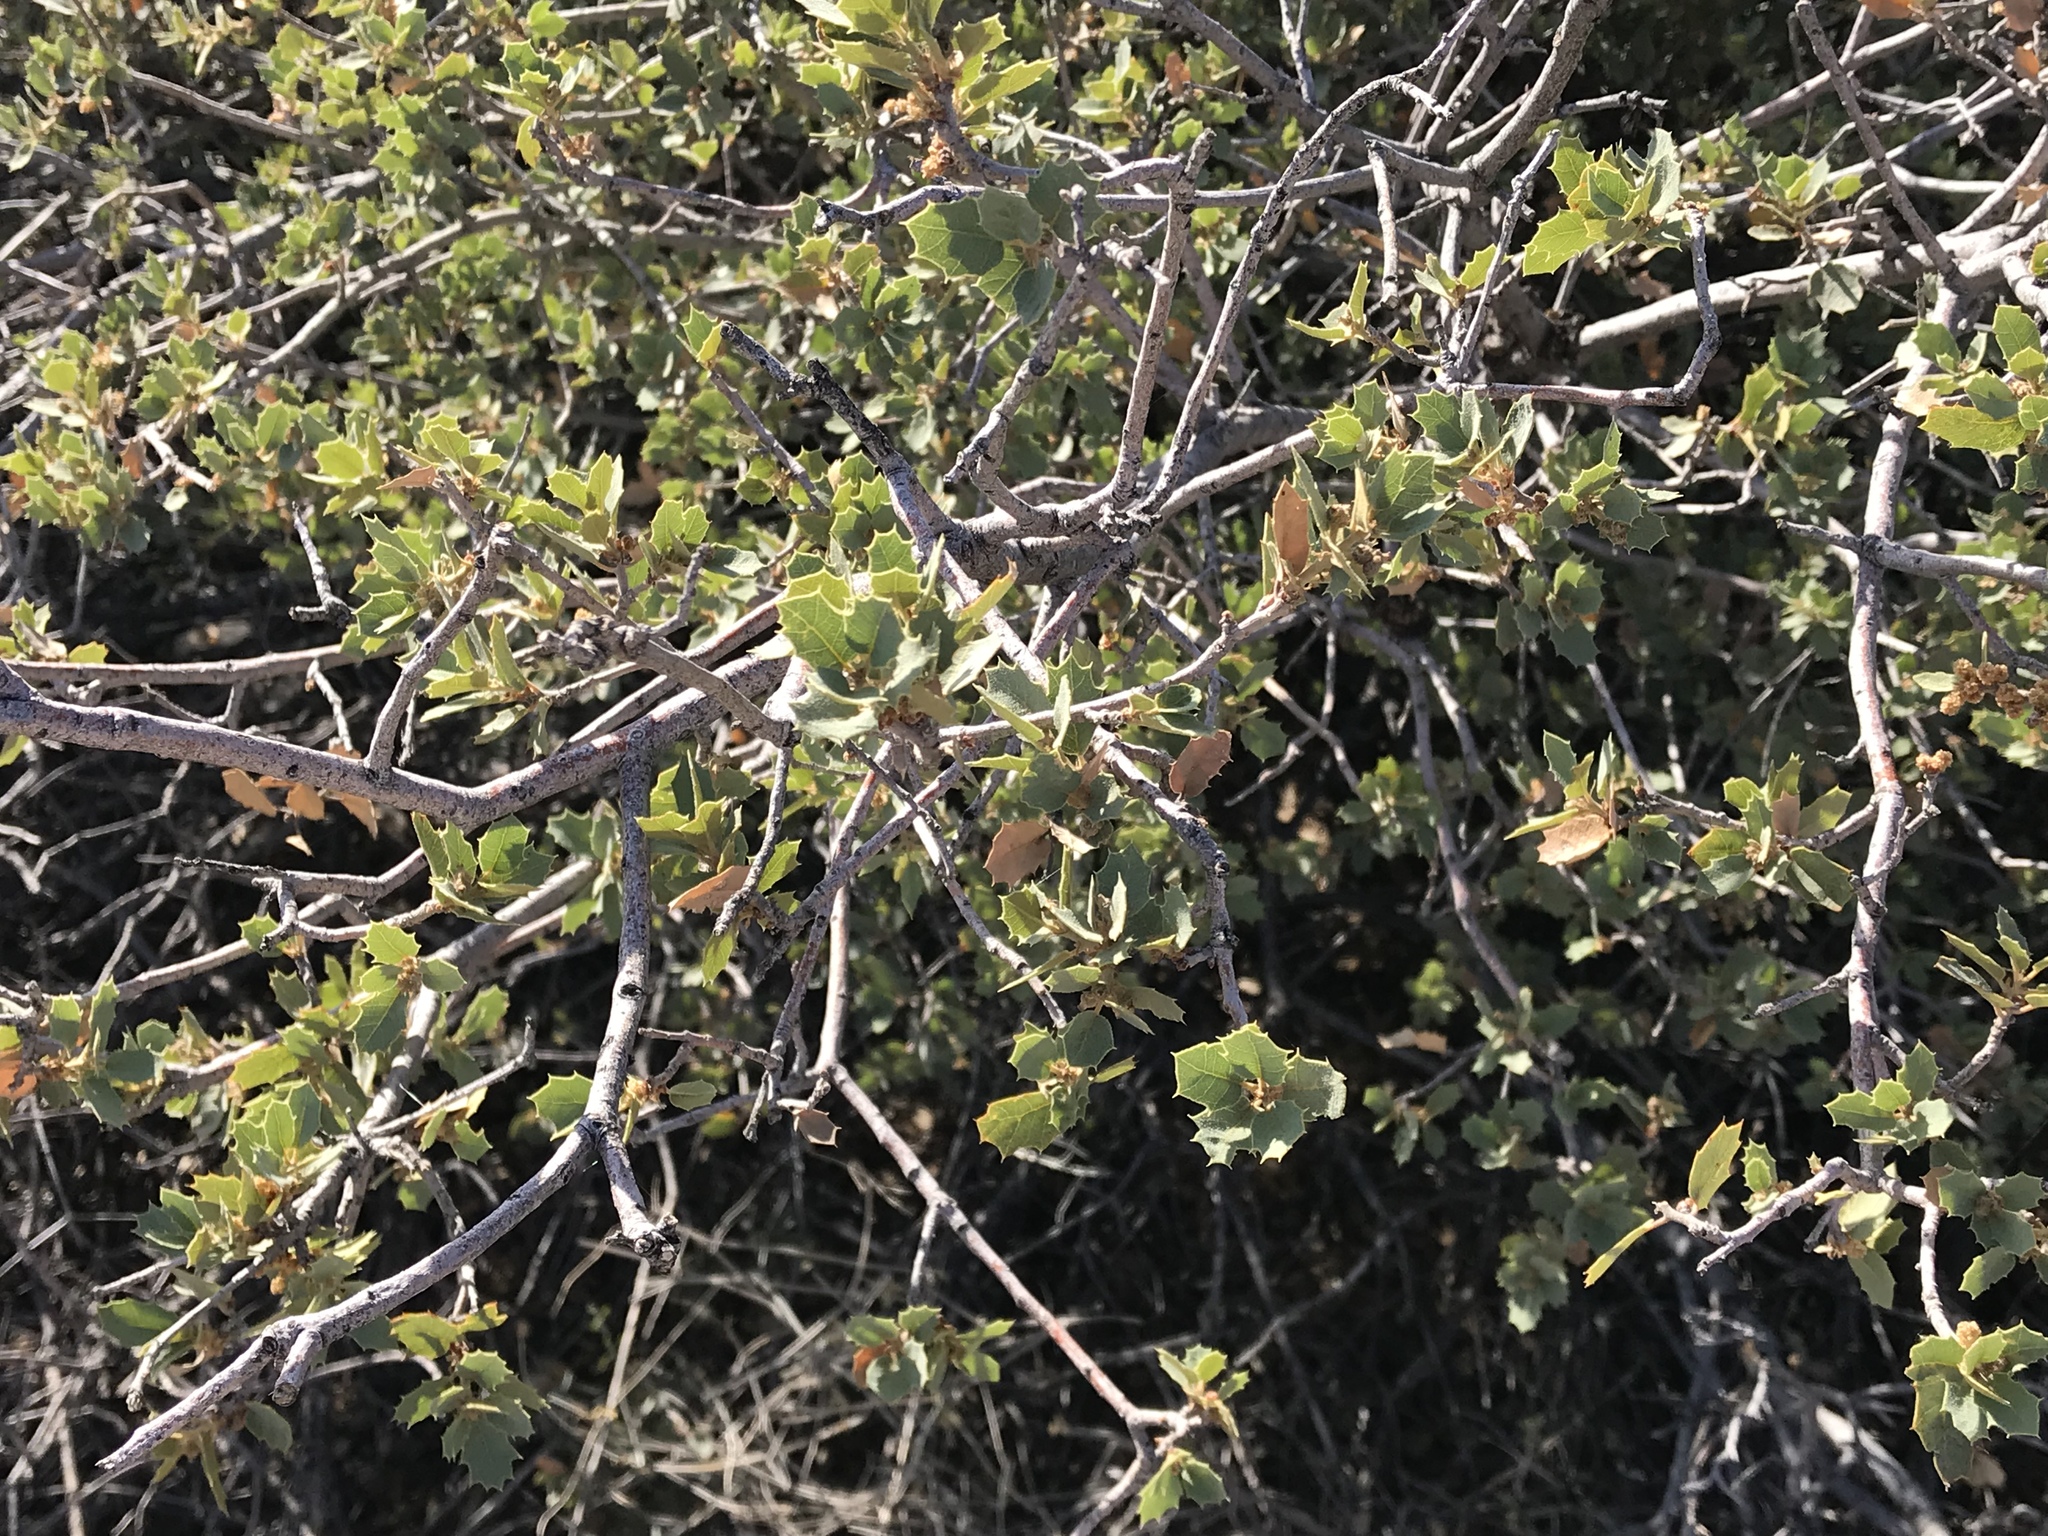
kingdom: Plantae
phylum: Tracheophyta
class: Magnoliopsida
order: Fagales
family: Fagaceae
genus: Quercus
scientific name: Quercus turbinella
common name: Sonoran scrub oak
